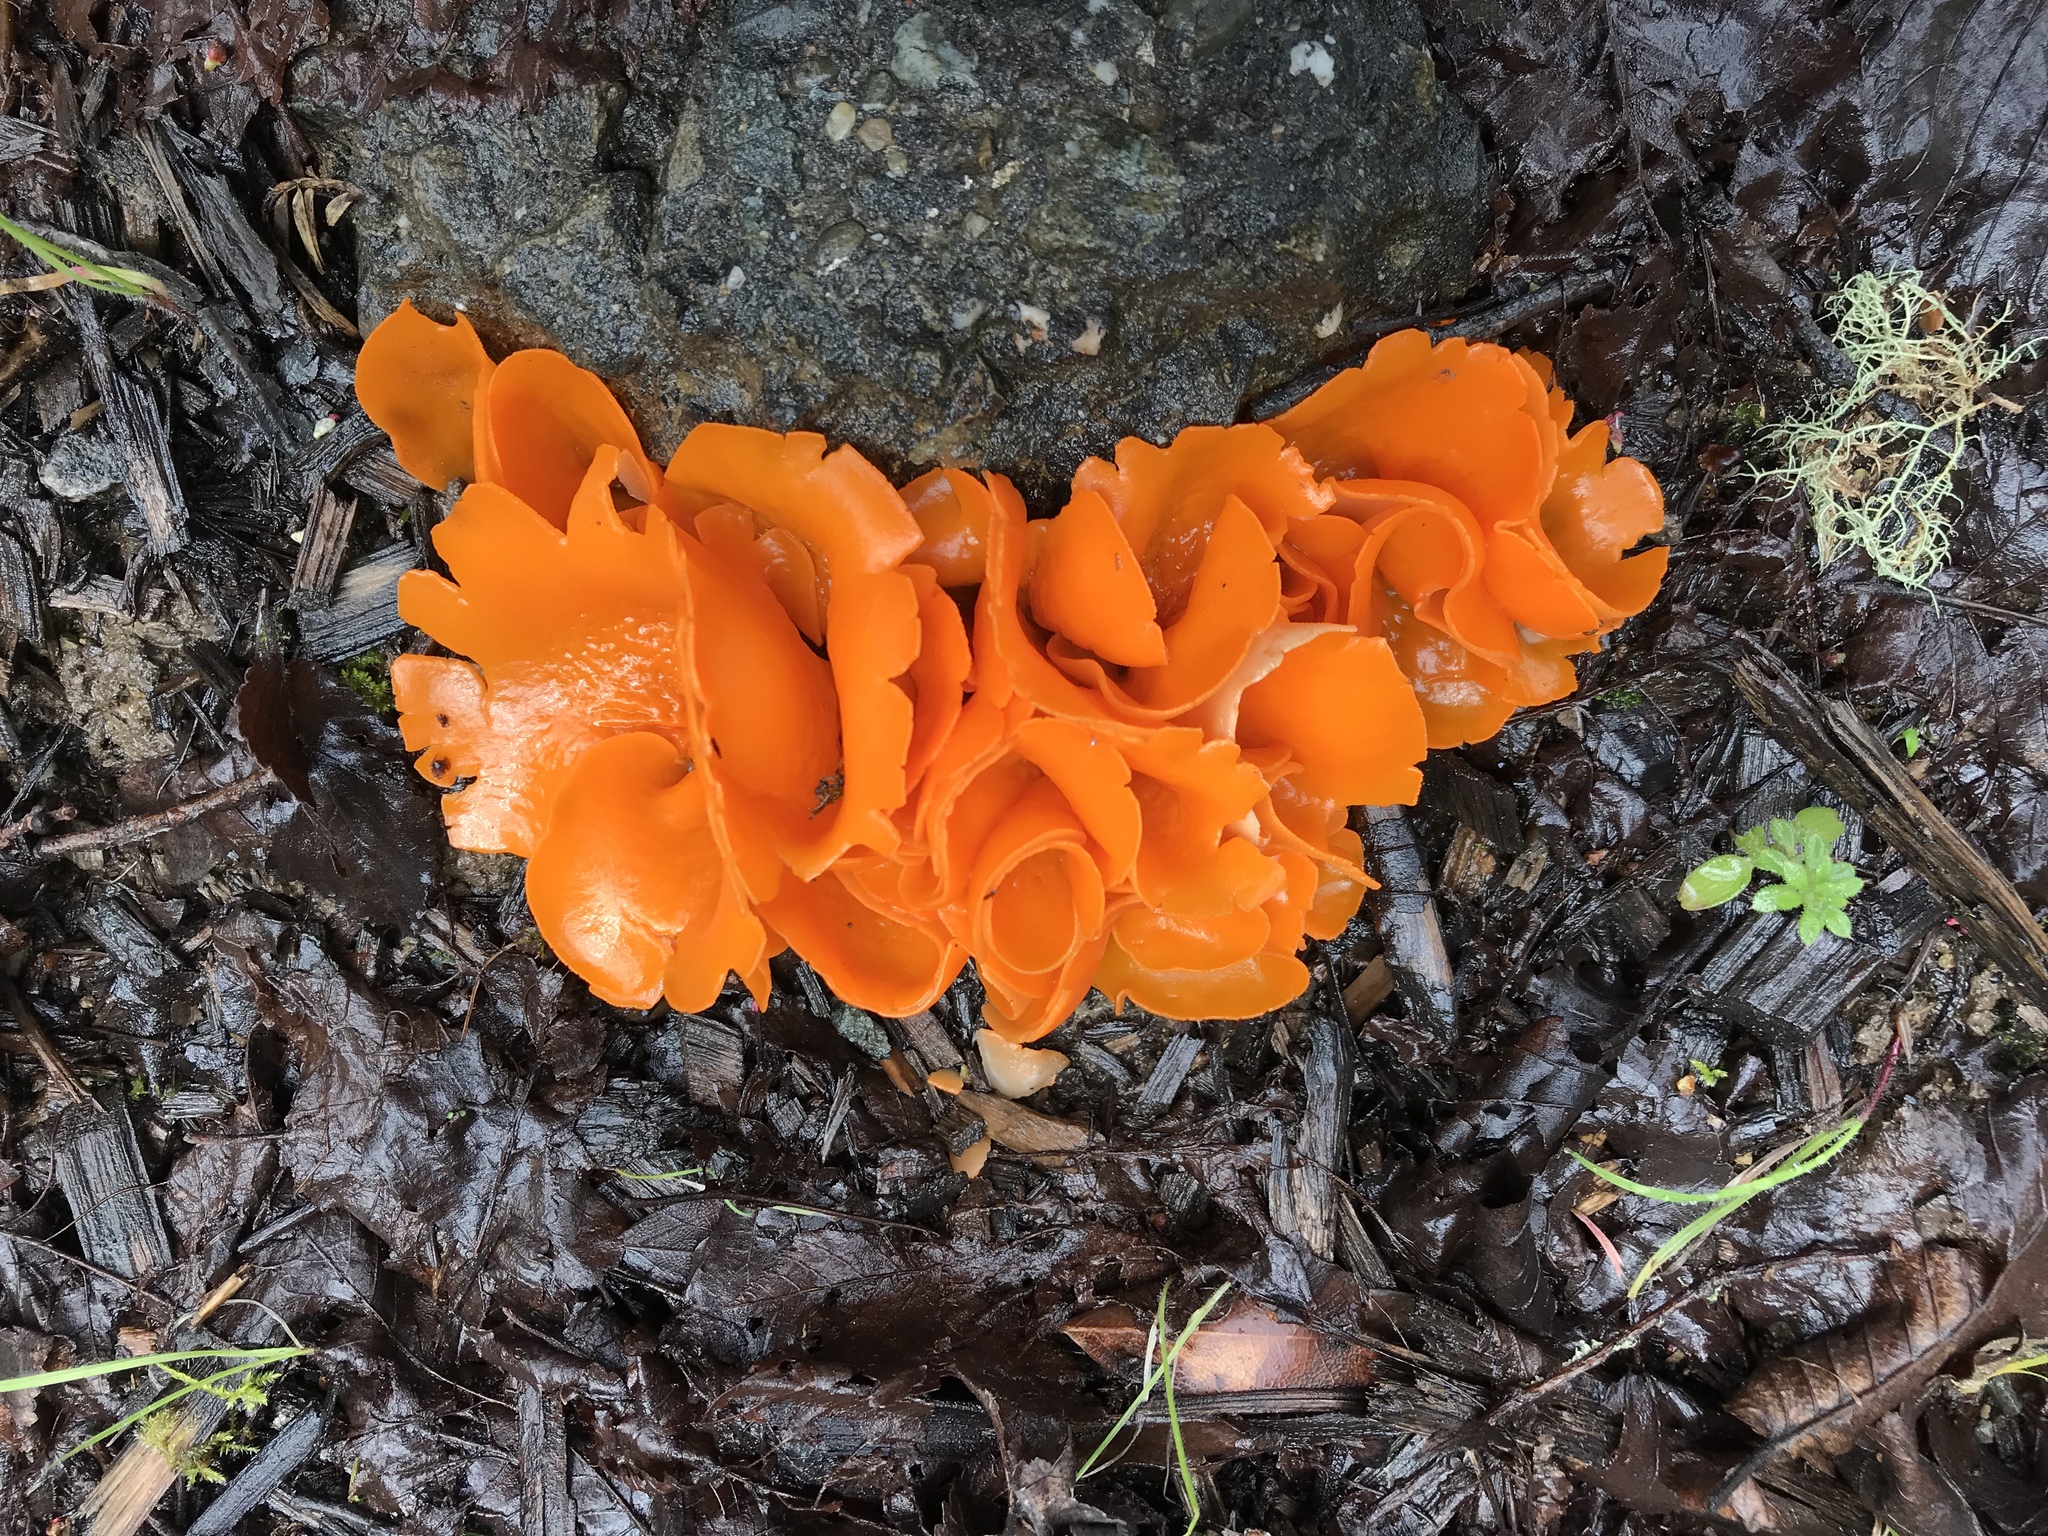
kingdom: Fungi
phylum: Ascomycota
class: Pezizomycetes
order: Pezizales
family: Pyronemataceae
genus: Aleuria
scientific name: Aleuria aurantia
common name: Orange peel fungus
